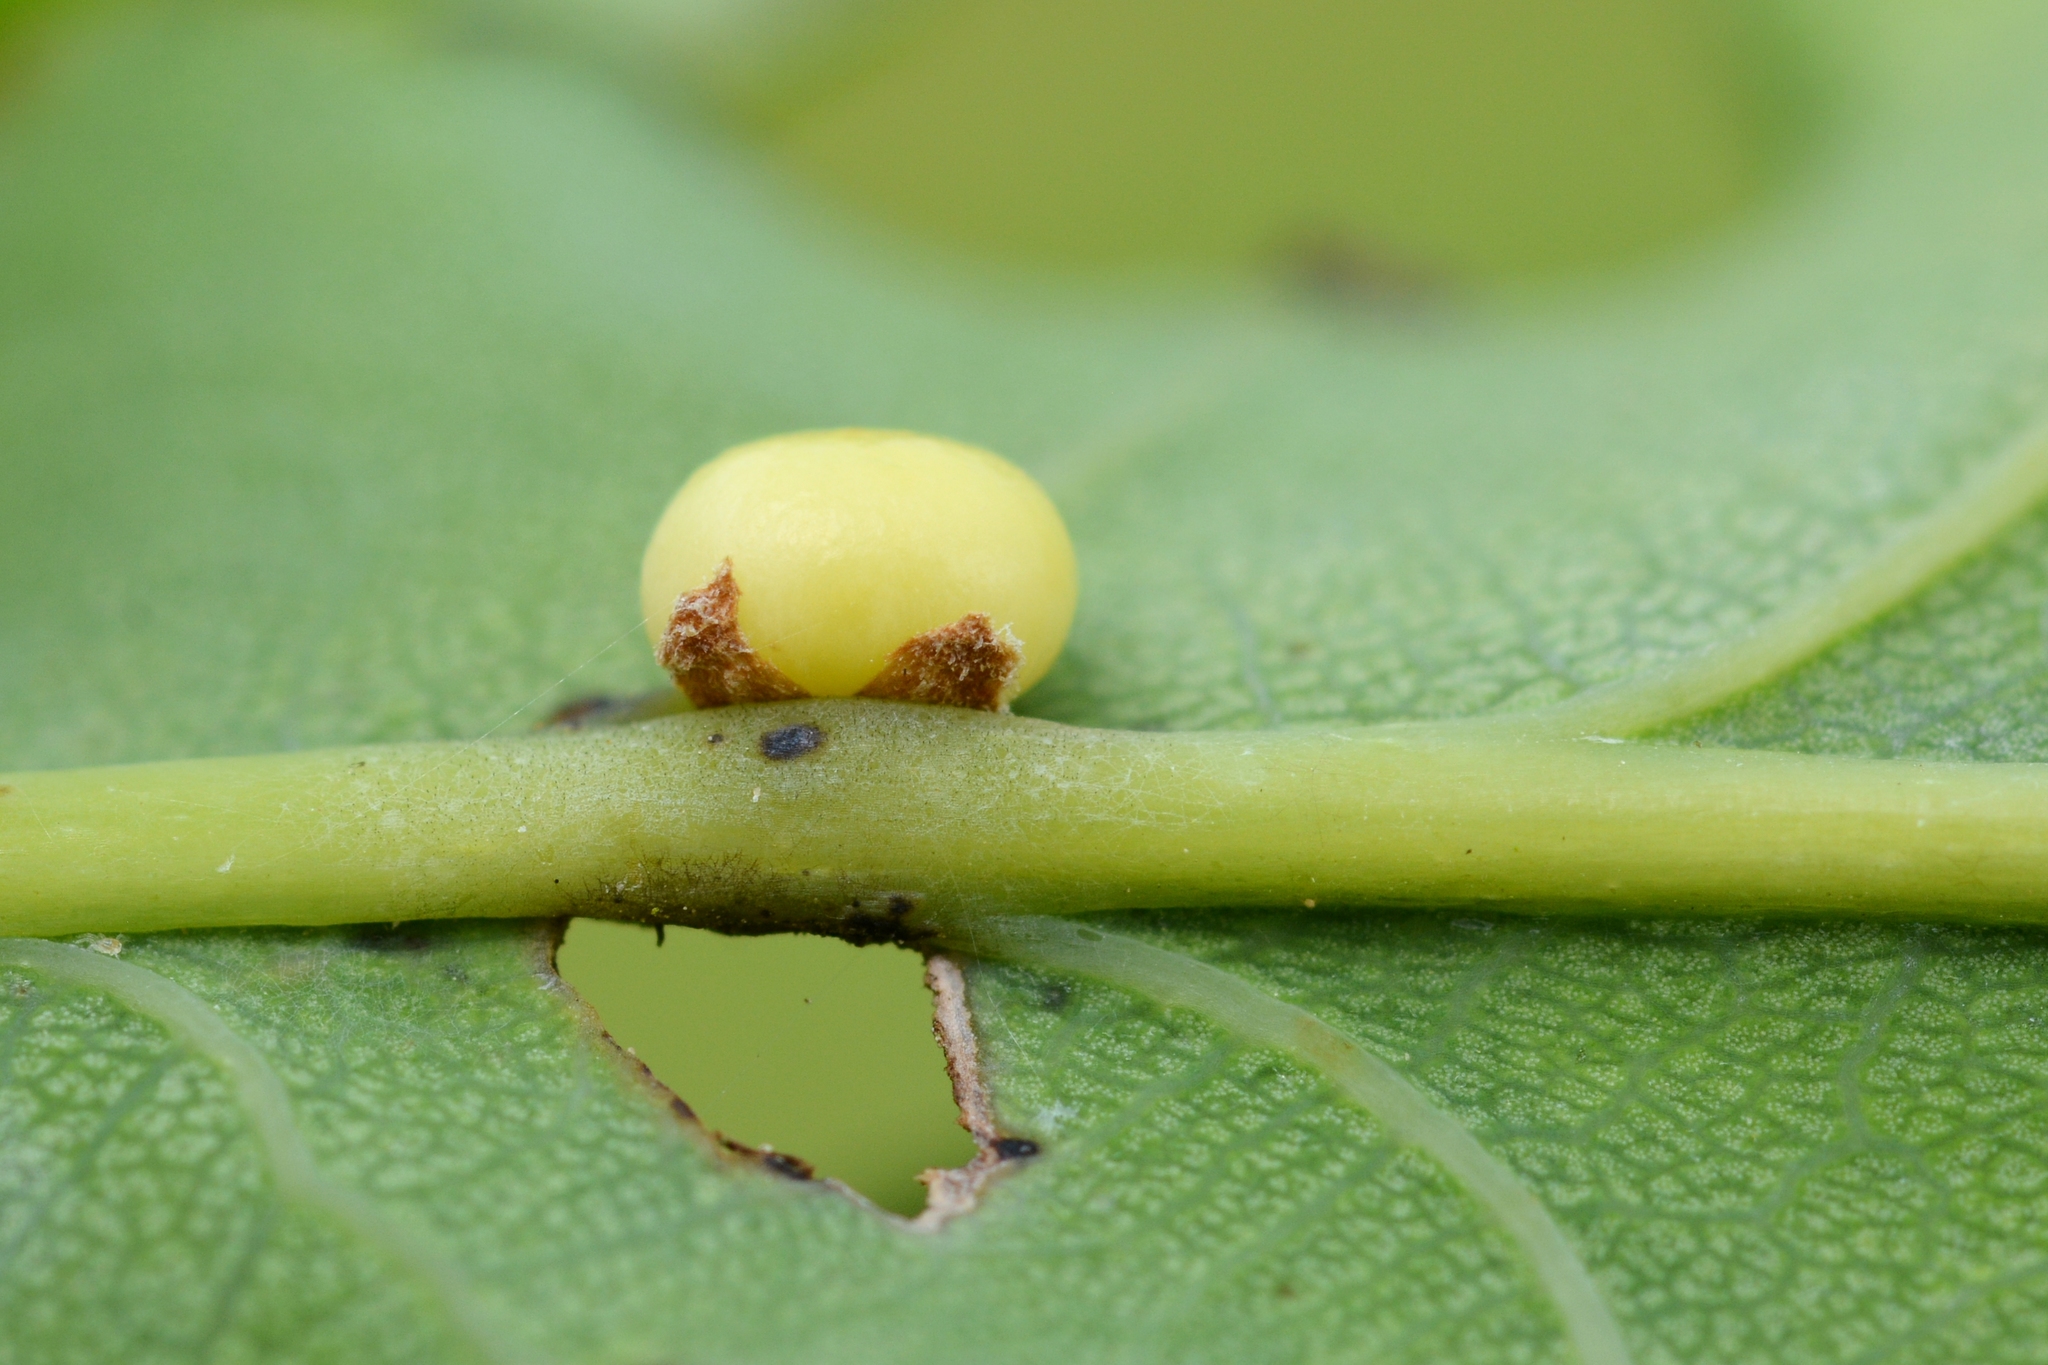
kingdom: Animalia
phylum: Arthropoda
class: Insecta
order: Hymenoptera
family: Cynipidae
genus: Neuroterus
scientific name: Neuroterus anthracinus
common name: Oyster gall
